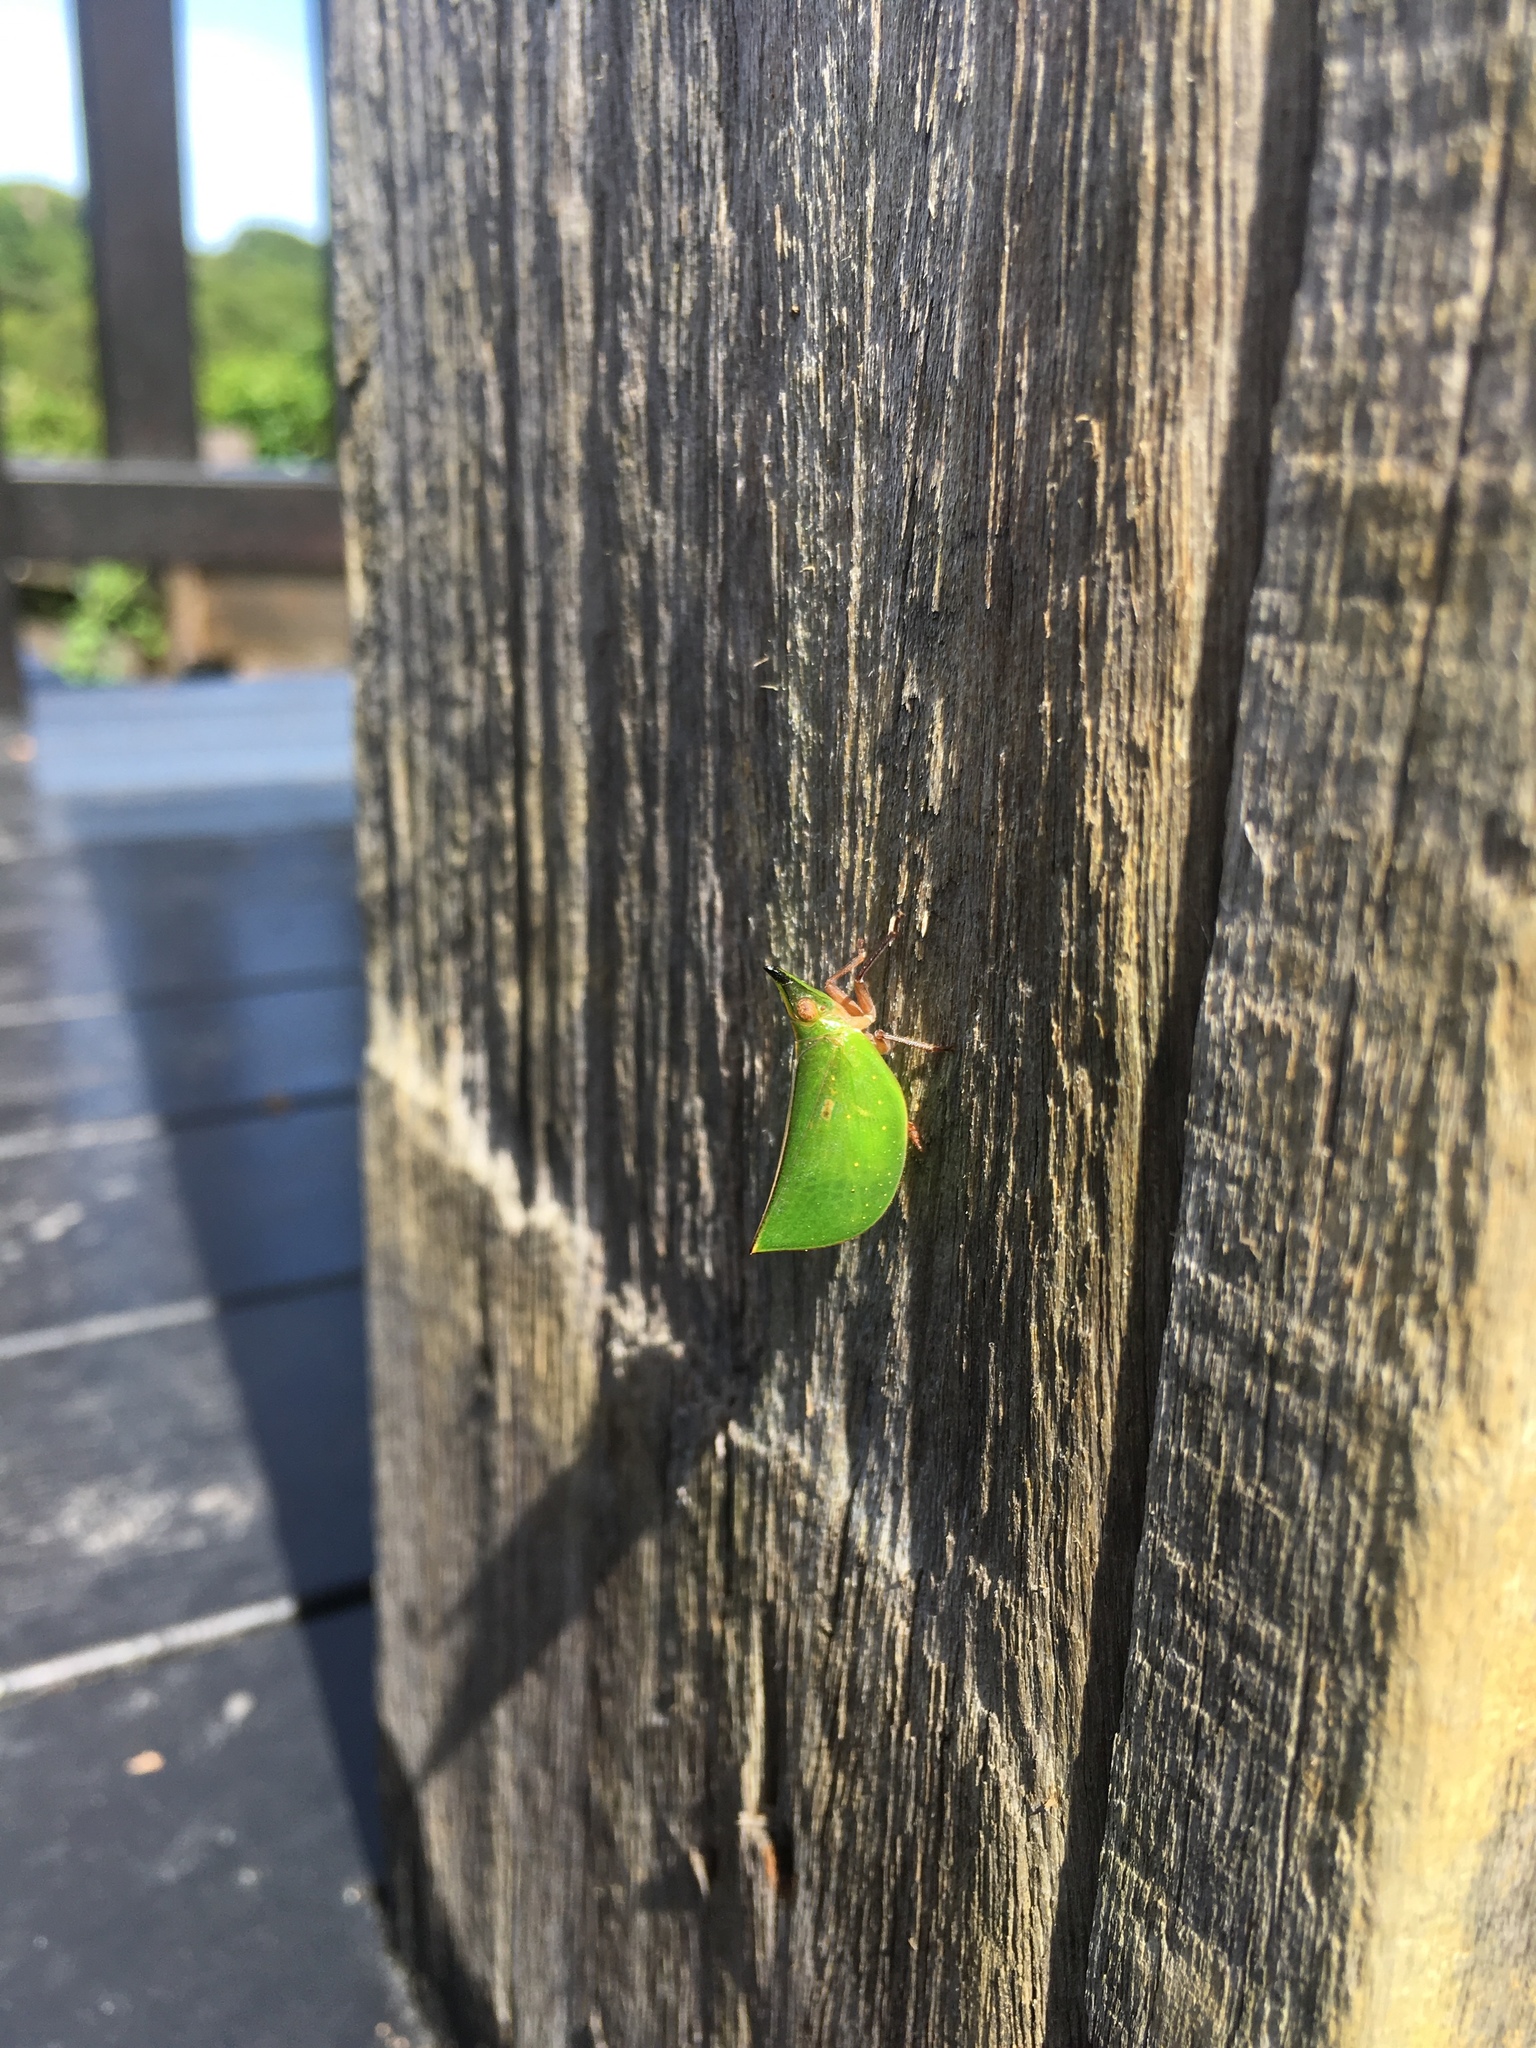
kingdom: Animalia
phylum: Arthropoda
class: Insecta
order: Hemiptera
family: Nogodinidae
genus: Tonga
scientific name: Tonga westwoodi
